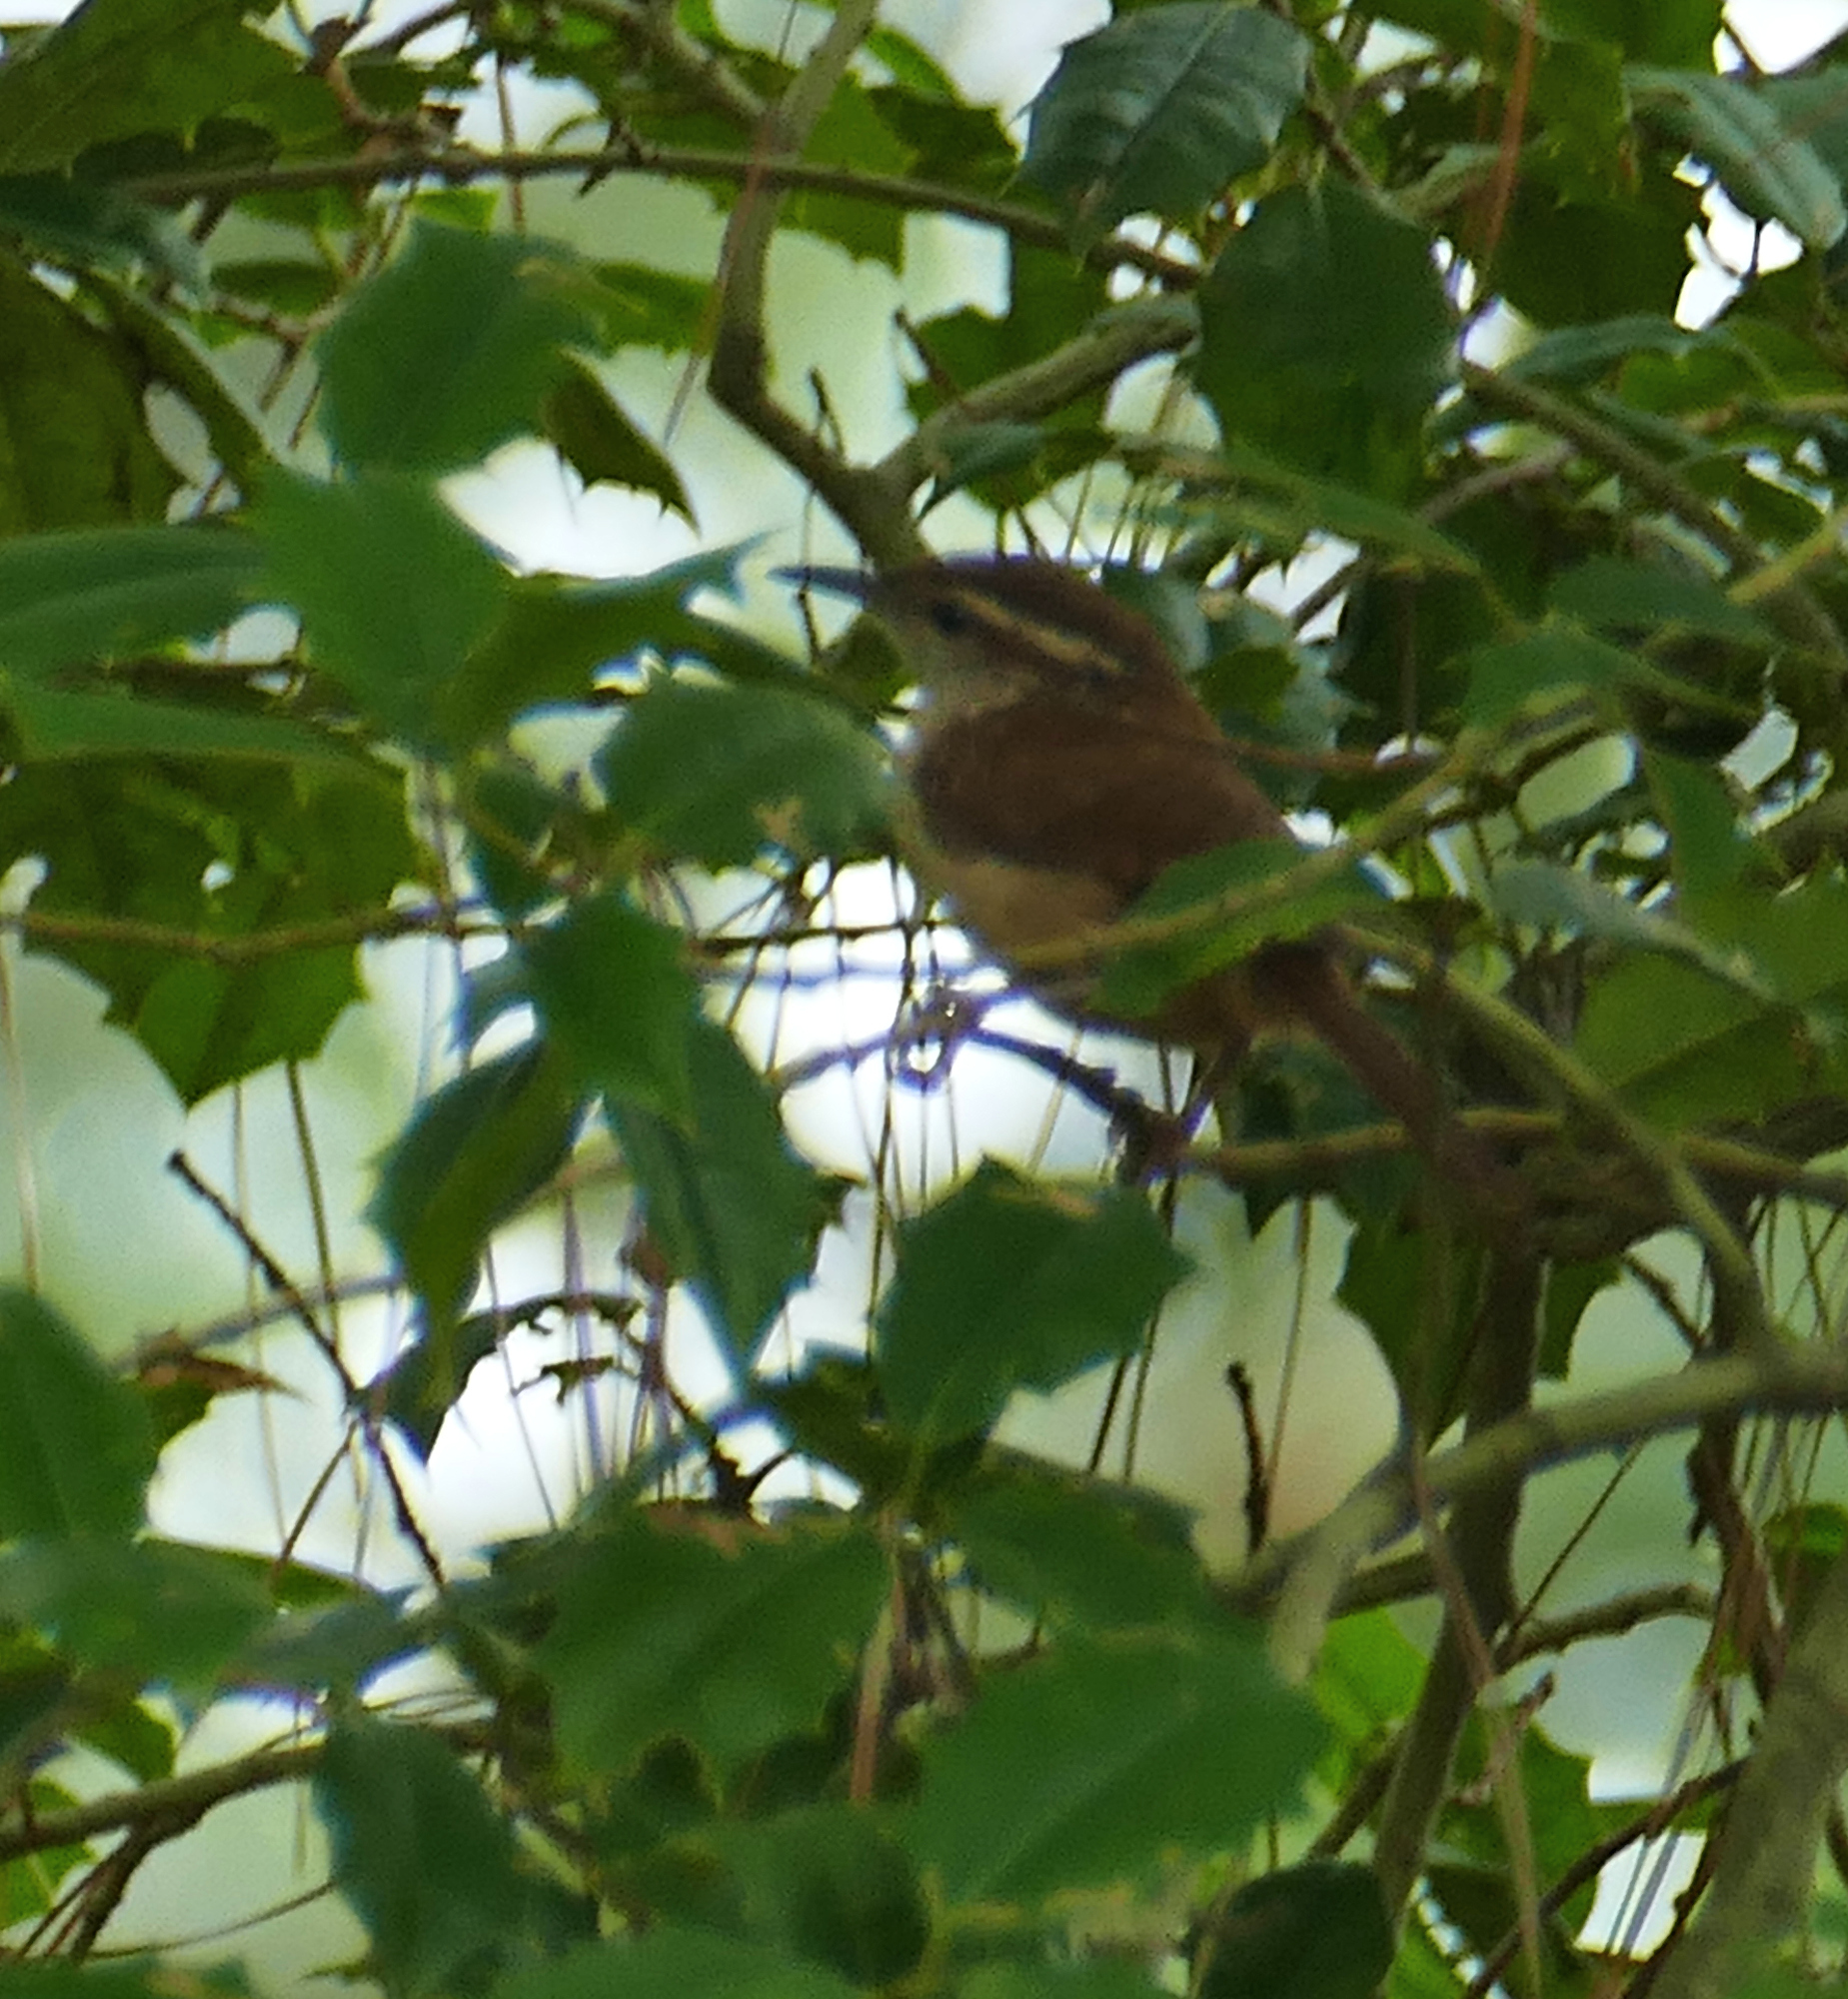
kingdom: Animalia
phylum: Chordata
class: Aves
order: Passeriformes
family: Troglodytidae
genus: Thryothorus
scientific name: Thryothorus ludovicianus
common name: Carolina wren
